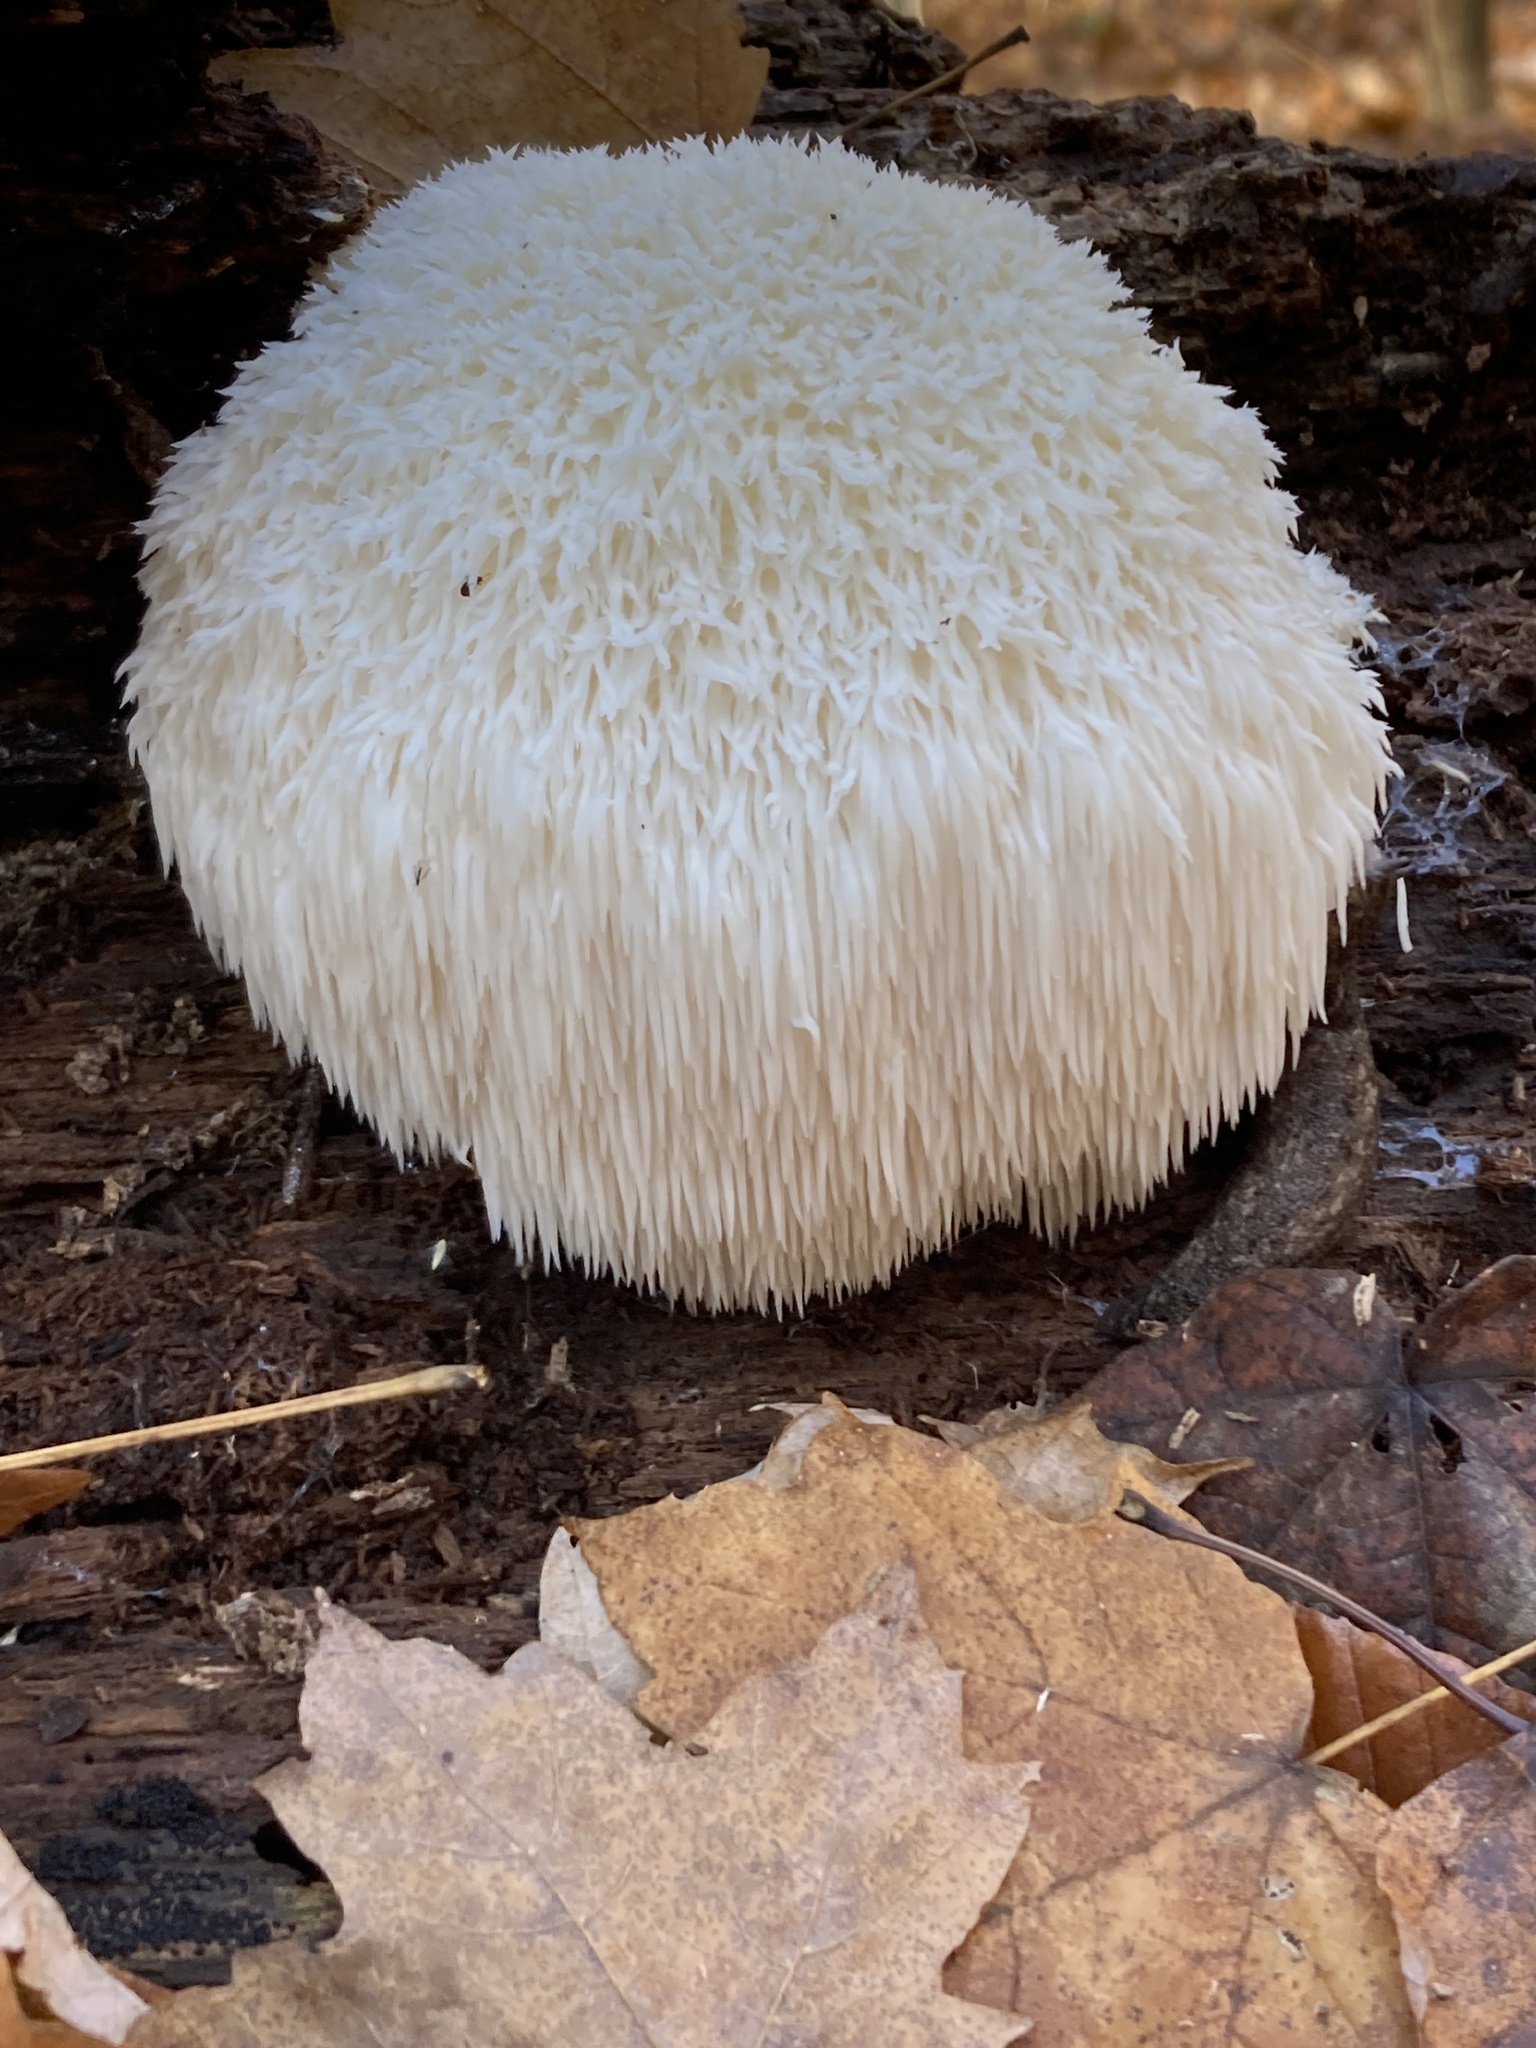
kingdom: Fungi
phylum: Basidiomycota
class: Agaricomycetes
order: Russulales
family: Hericiaceae
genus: Hericium
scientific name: Hericium erinaceus
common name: Bearded tooth
